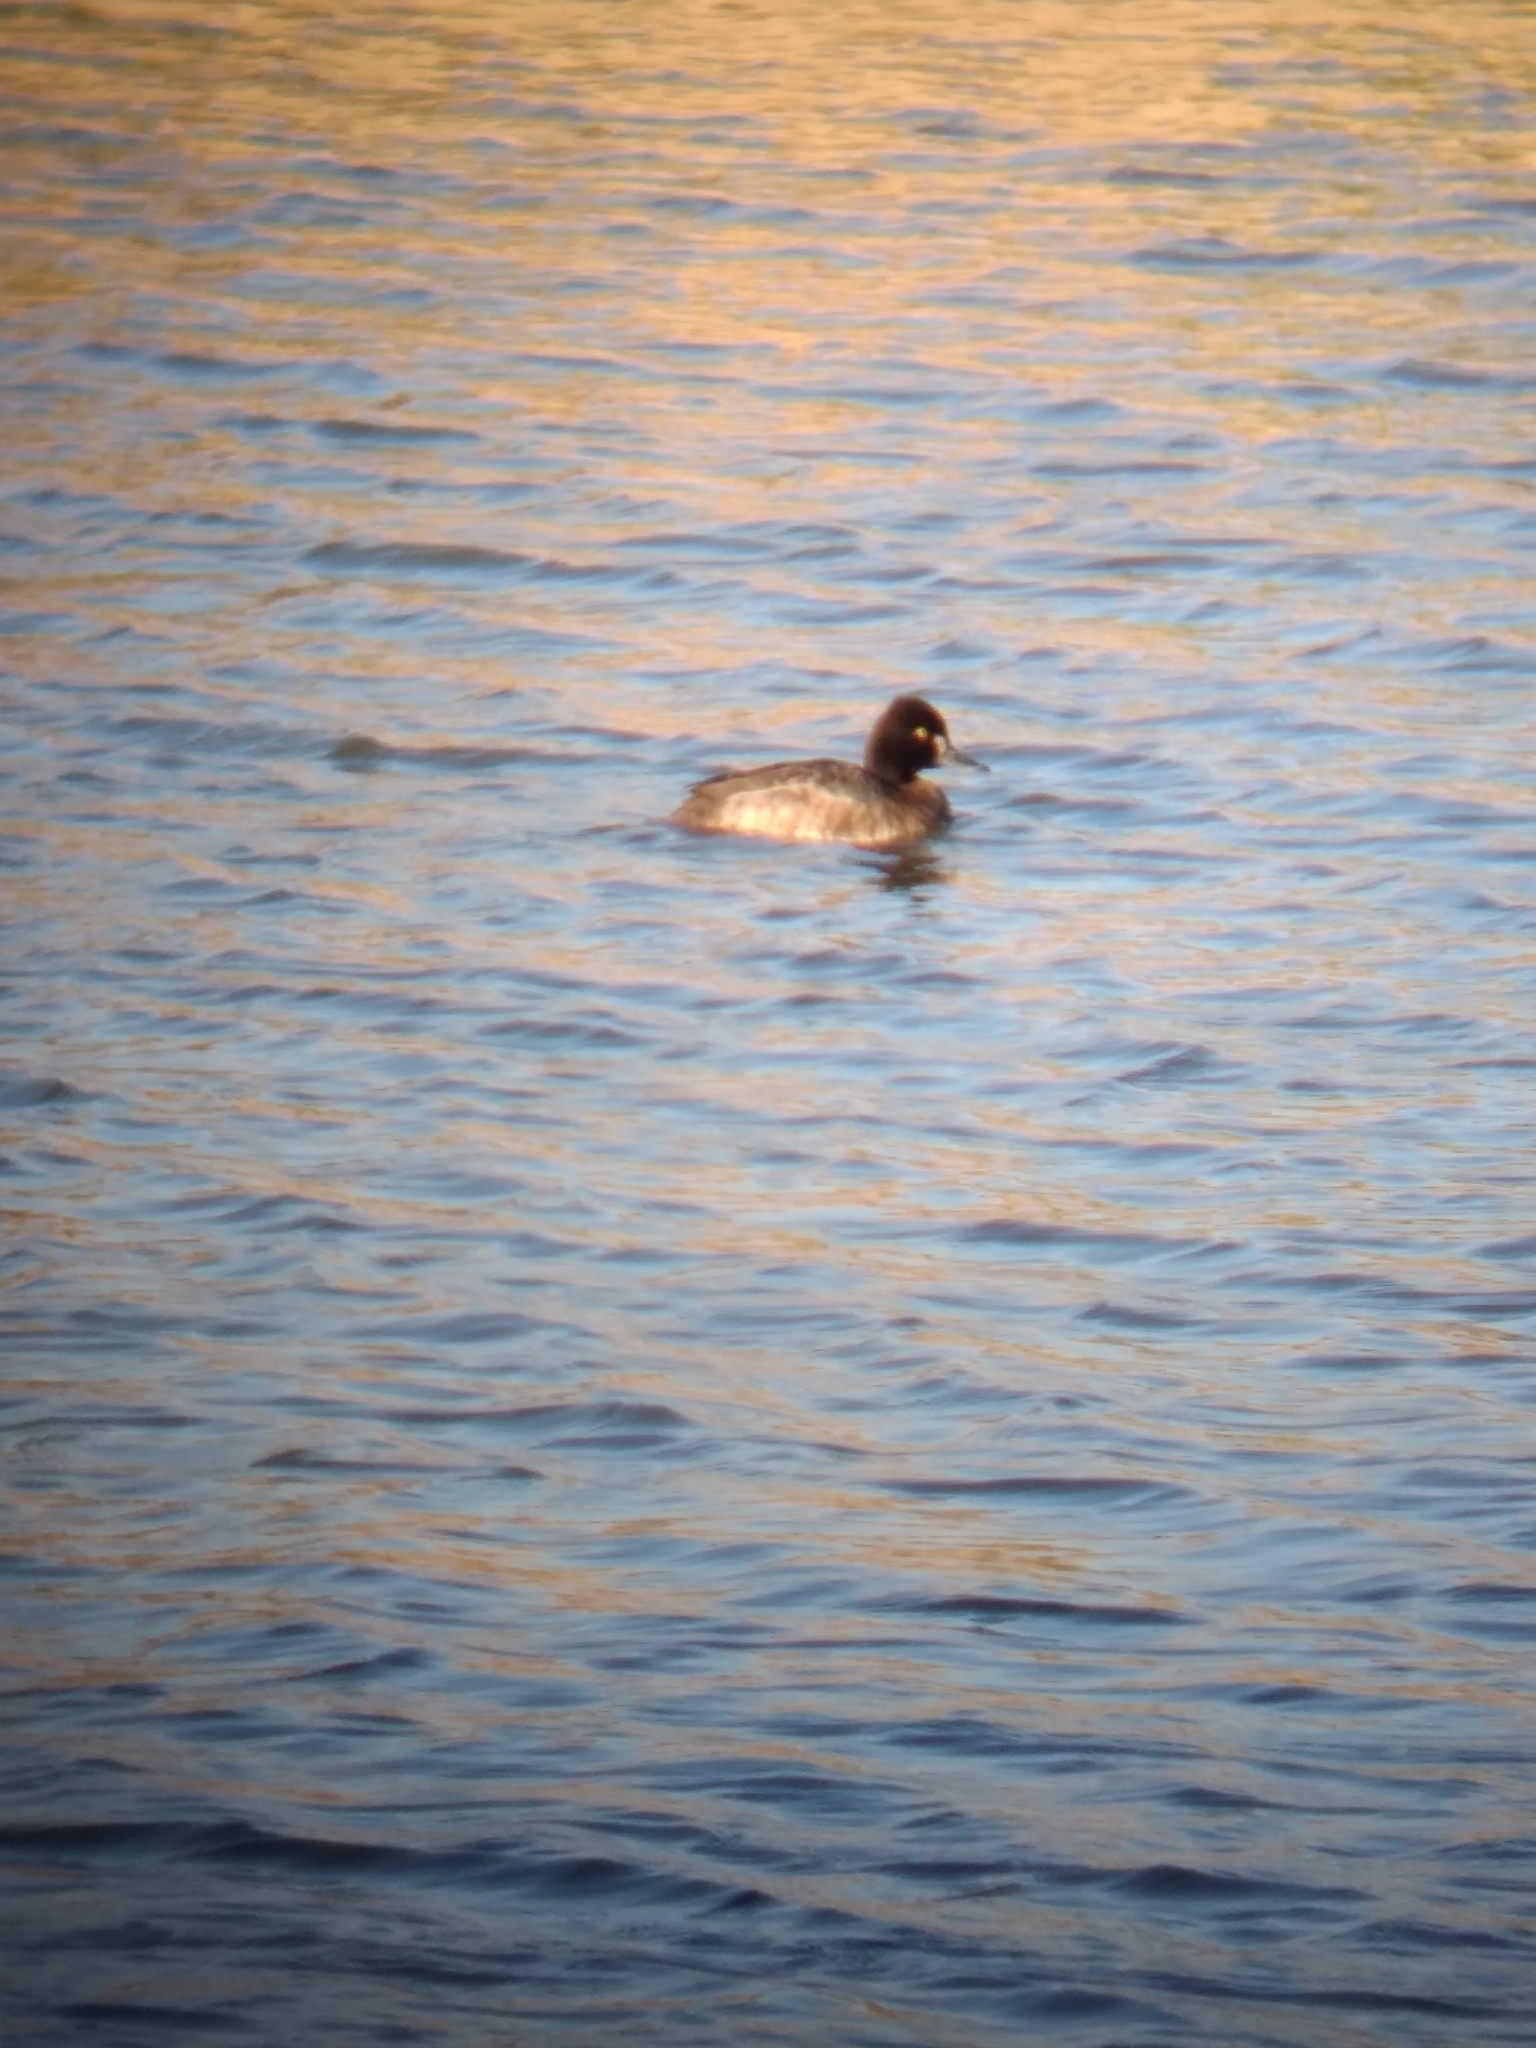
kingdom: Animalia
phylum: Chordata
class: Aves
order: Anseriformes
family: Anatidae
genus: Aythya
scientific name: Aythya affinis
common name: Lesser scaup
